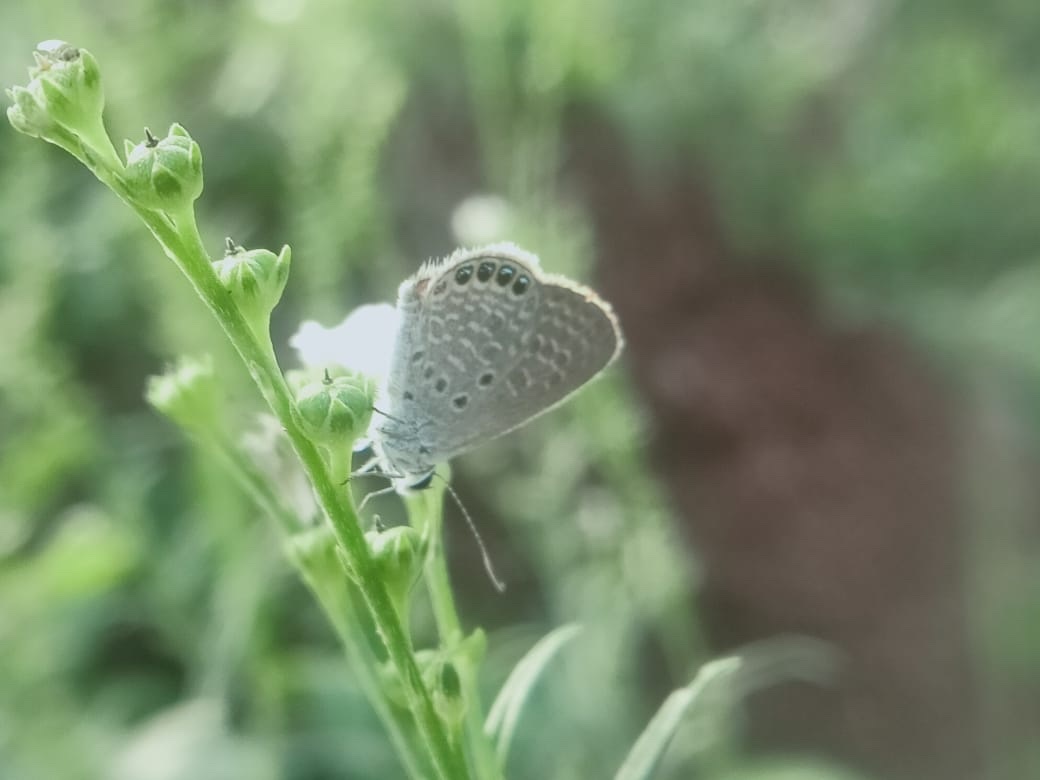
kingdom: Animalia
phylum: Arthropoda
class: Insecta
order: Lepidoptera
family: Lycaenidae
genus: Freyeria
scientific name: Freyeria putli
